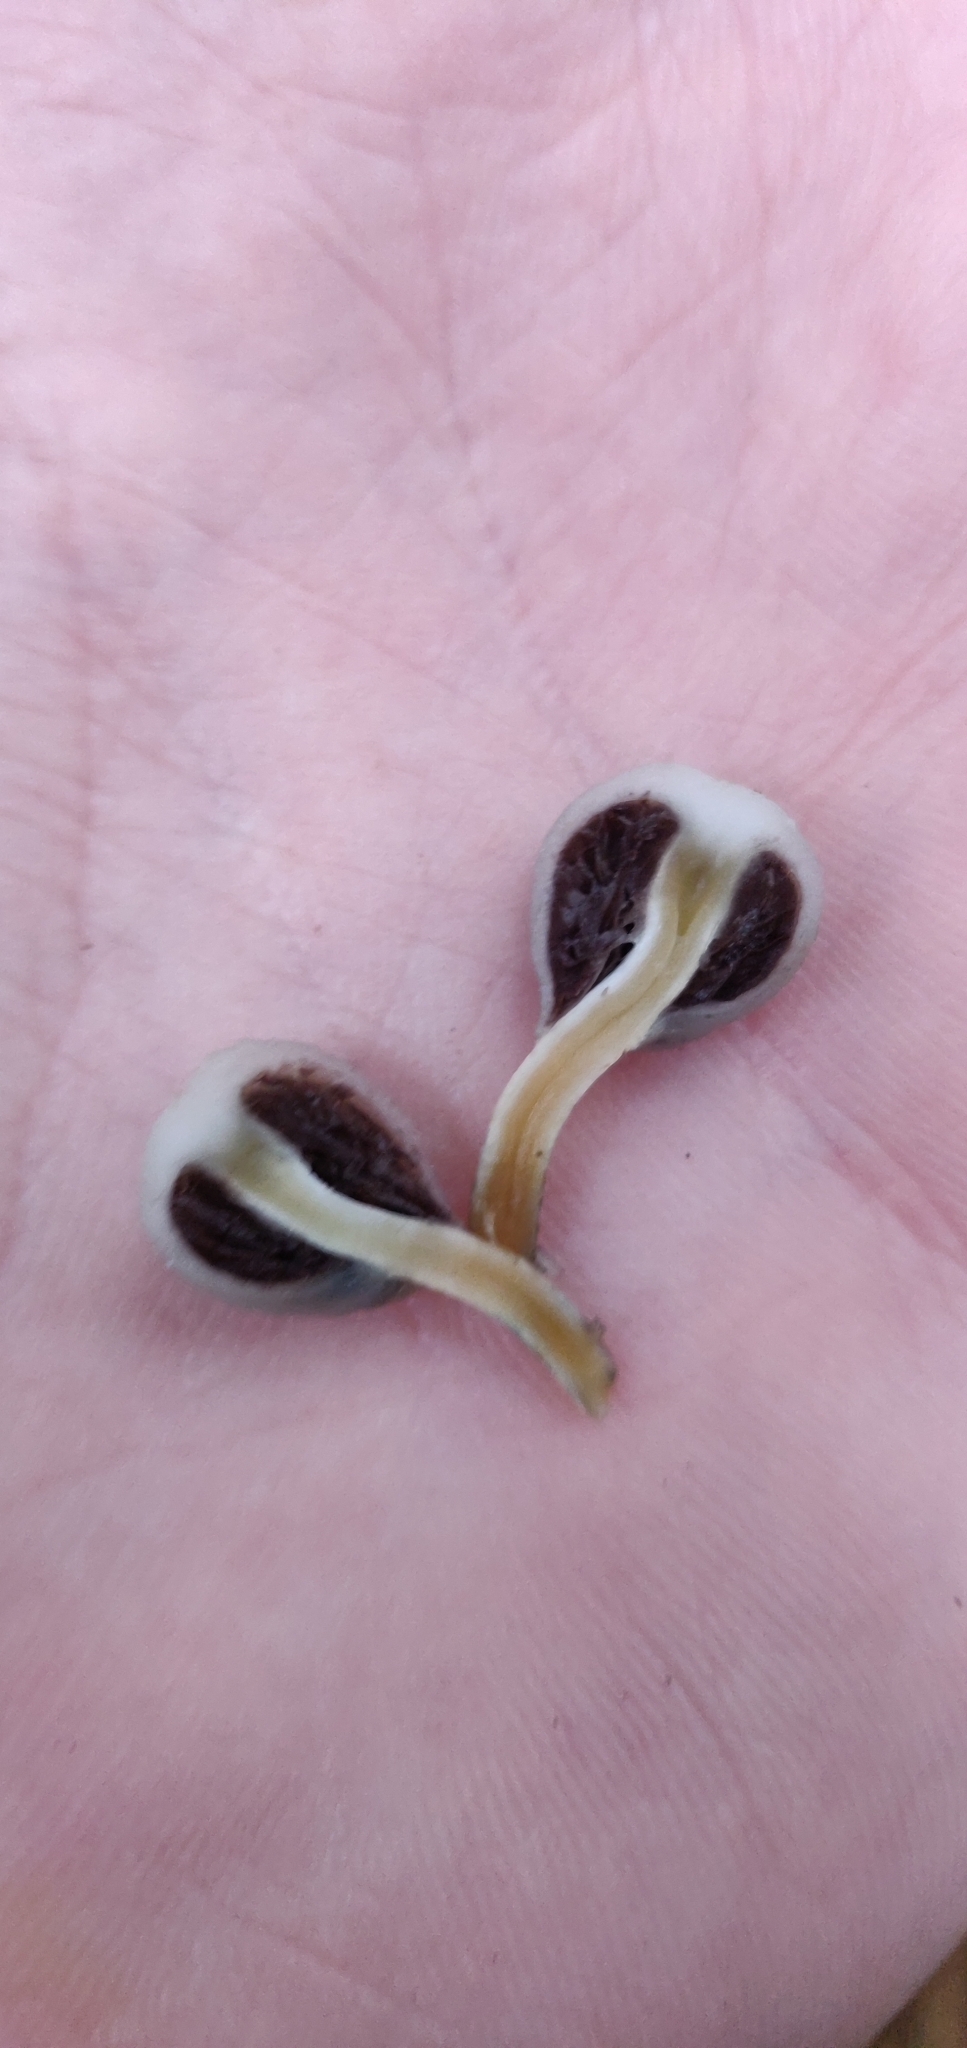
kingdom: Fungi
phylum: Basidiomycota
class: Agaricomycetes
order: Agaricales
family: Hymenogastraceae
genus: Psilocybe
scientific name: Psilocybe weraroa
